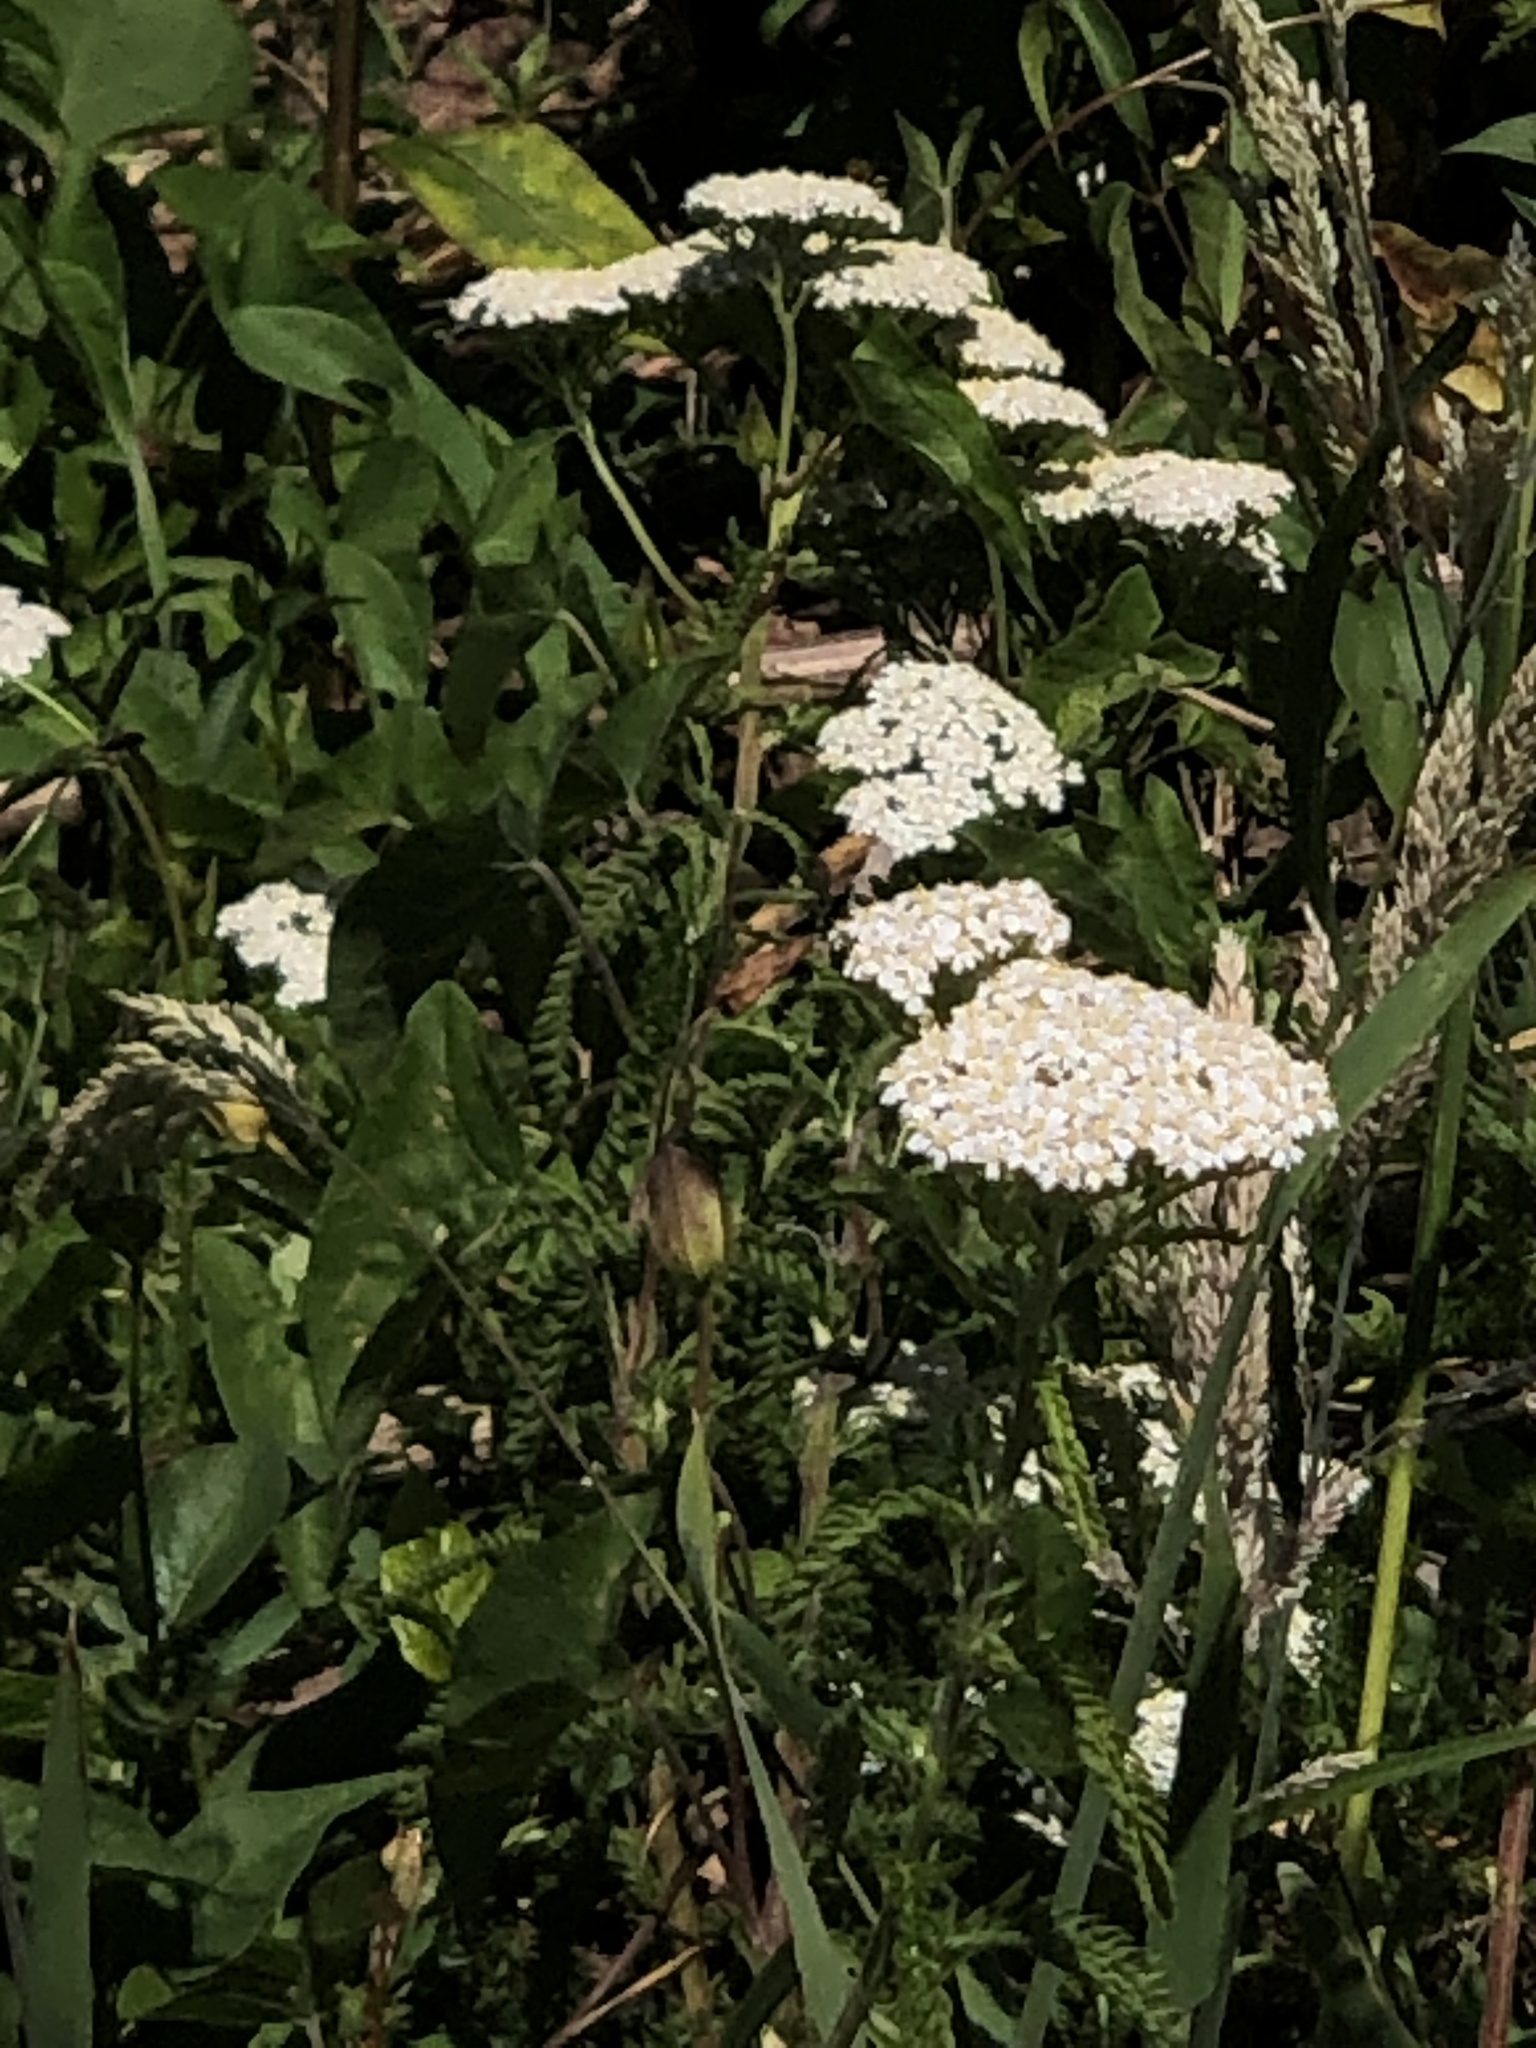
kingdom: Plantae
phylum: Tracheophyta
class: Magnoliopsida
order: Asterales
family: Asteraceae
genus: Achillea
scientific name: Achillea millefolium
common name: Yarrow
